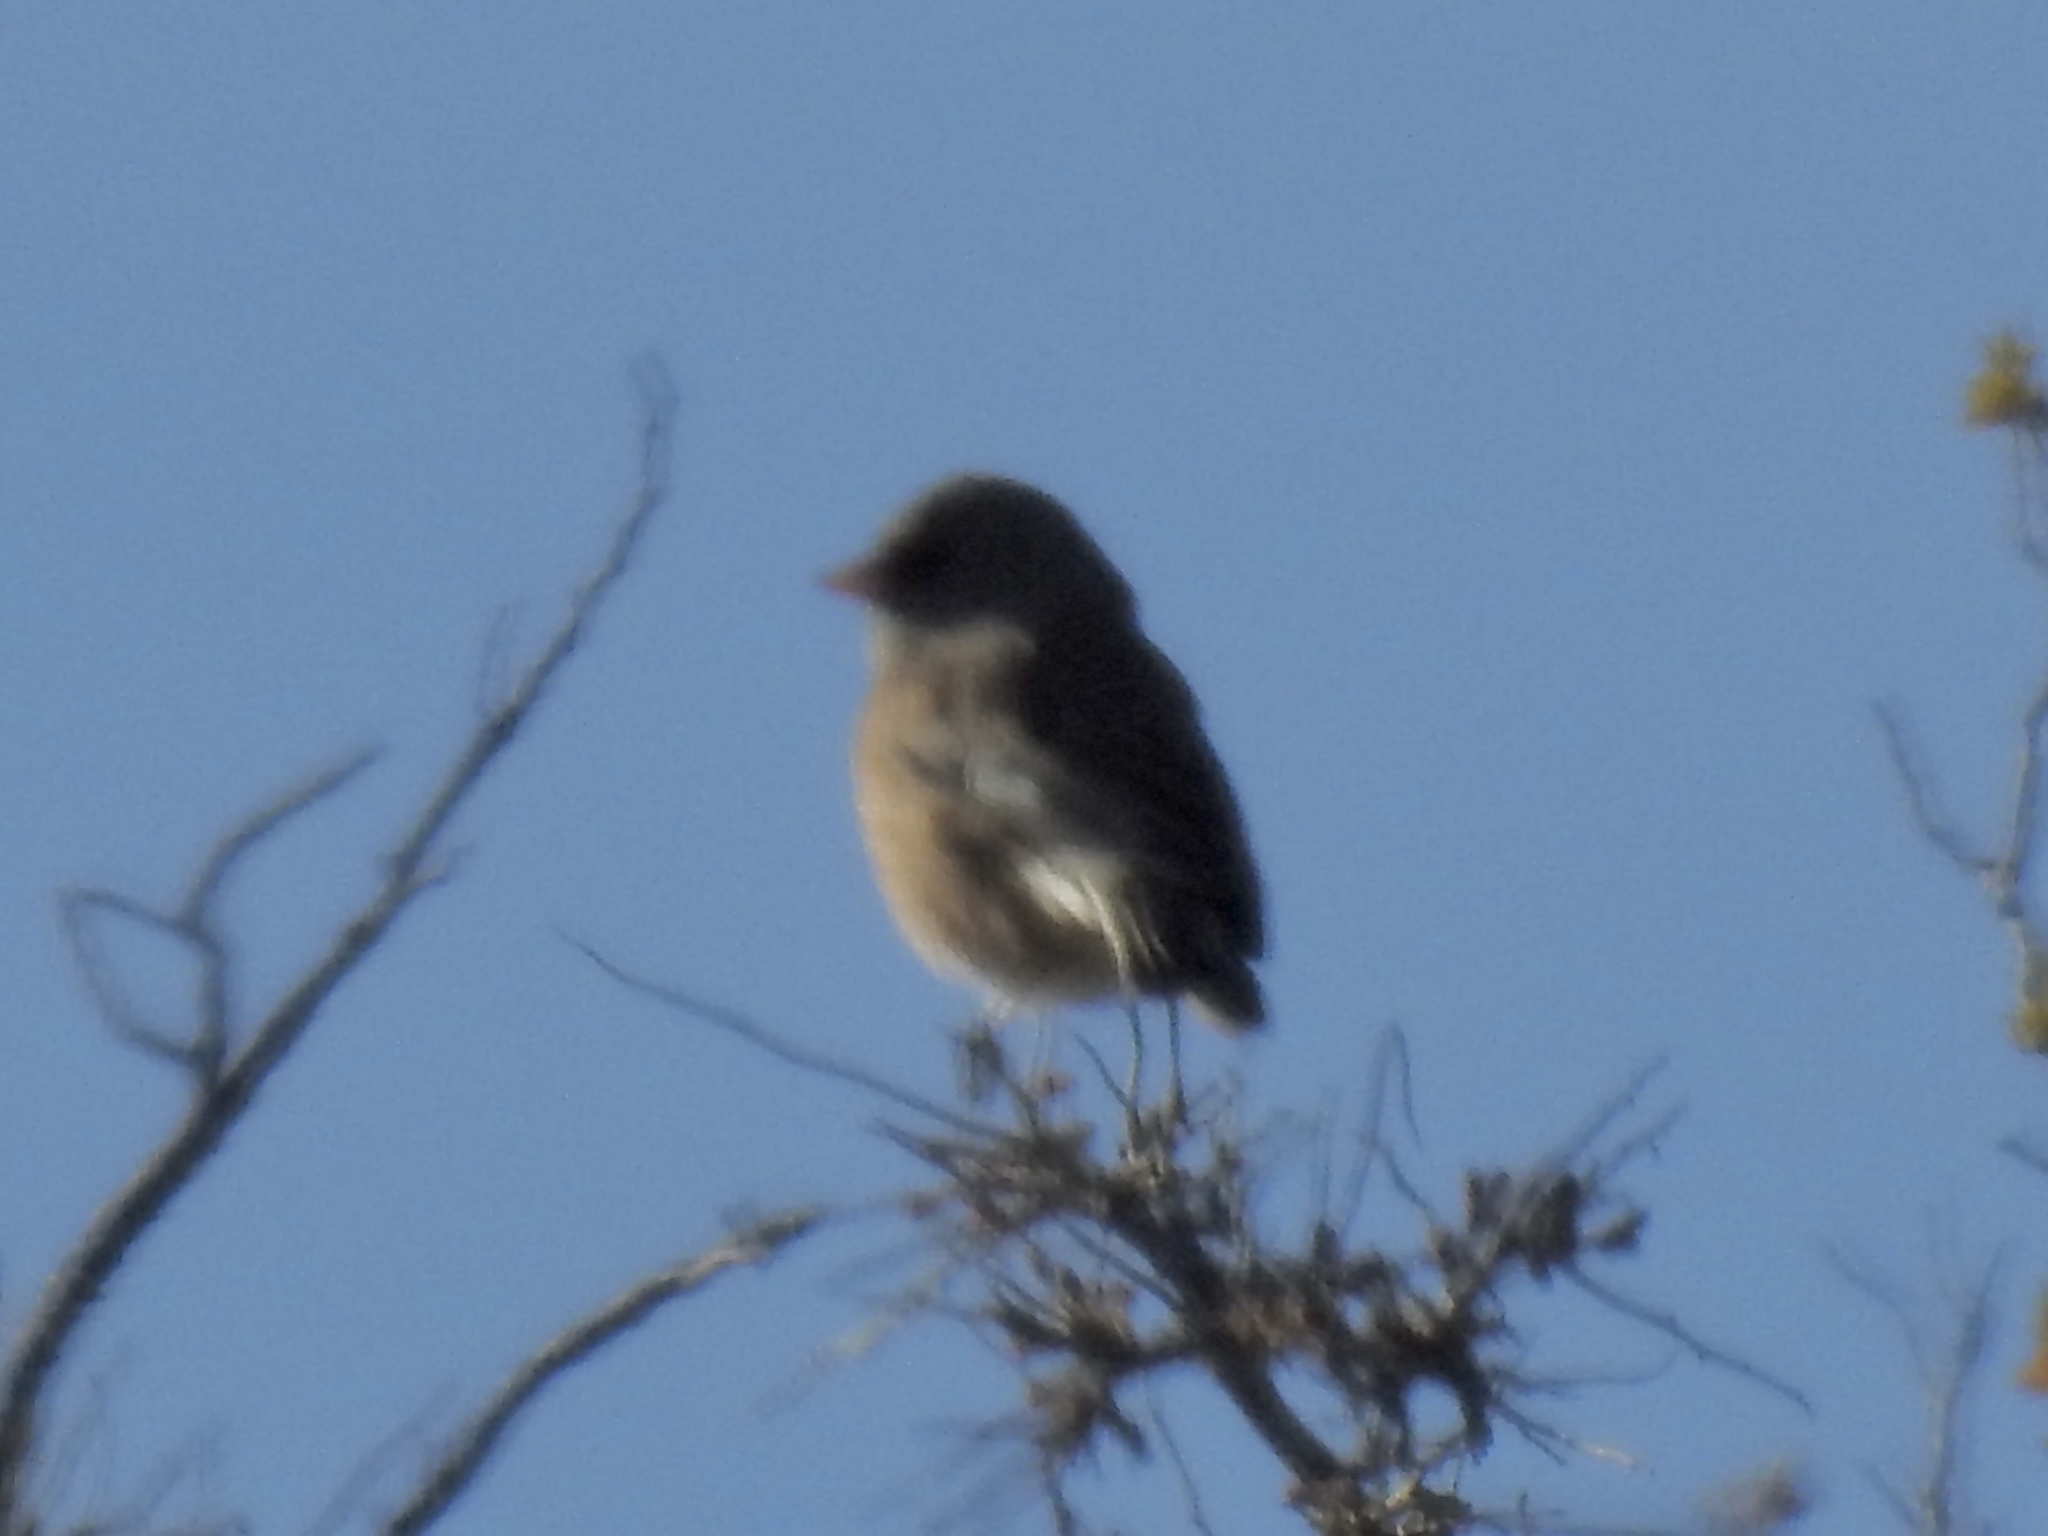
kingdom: Animalia
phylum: Chordata
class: Aves
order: Passeriformes
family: Turdidae
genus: Sialia
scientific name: Sialia mexicana
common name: Western bluebird
